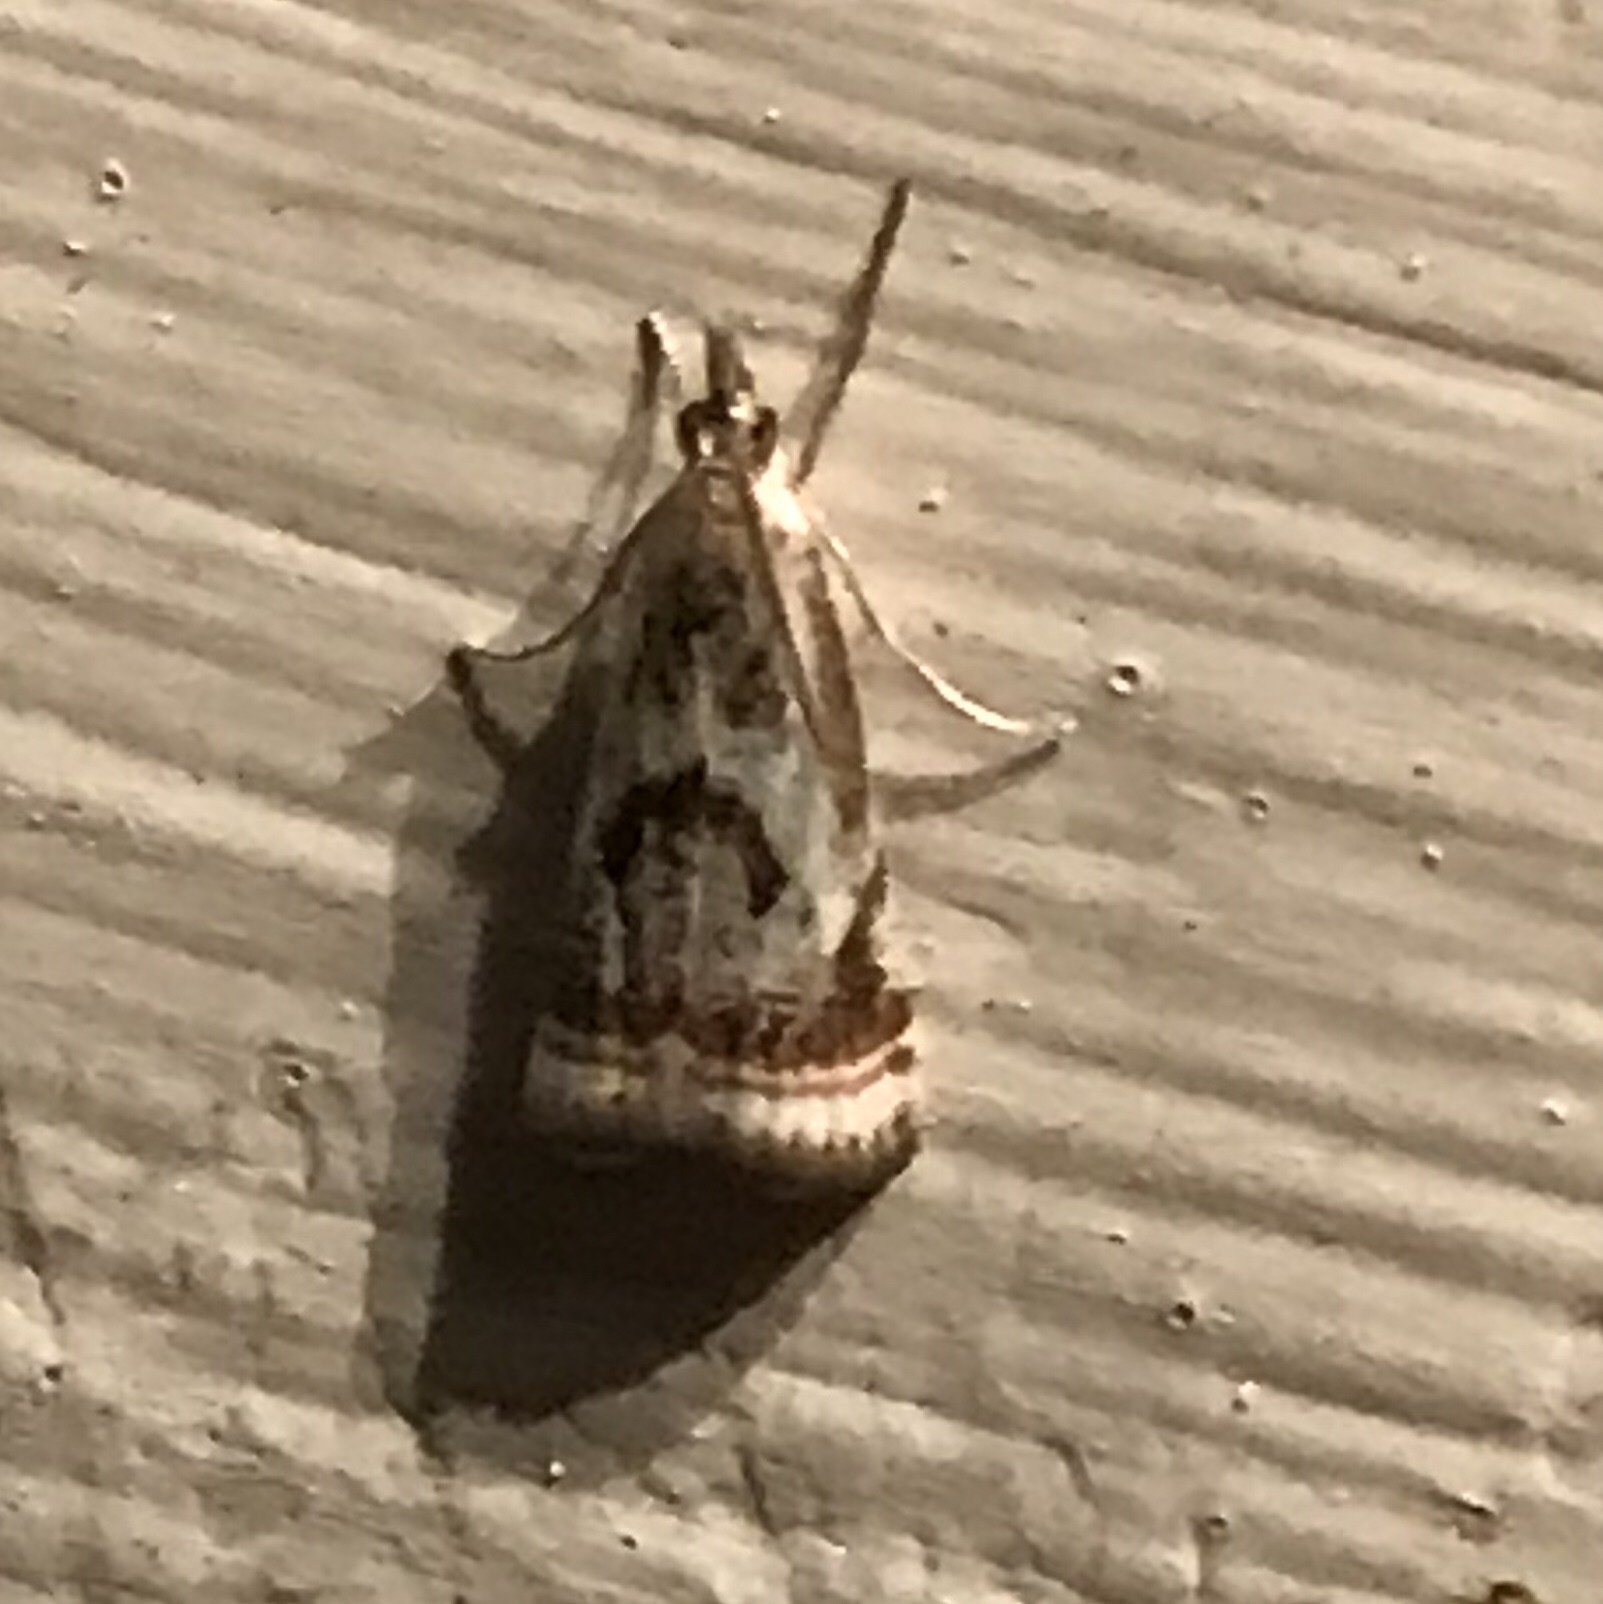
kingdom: Animalia
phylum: Arthropoda
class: Insecta
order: Lepidoptera
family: Crambidae
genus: Microcrambus
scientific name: Microcrambus elegans
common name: Elegant grass-veneer
